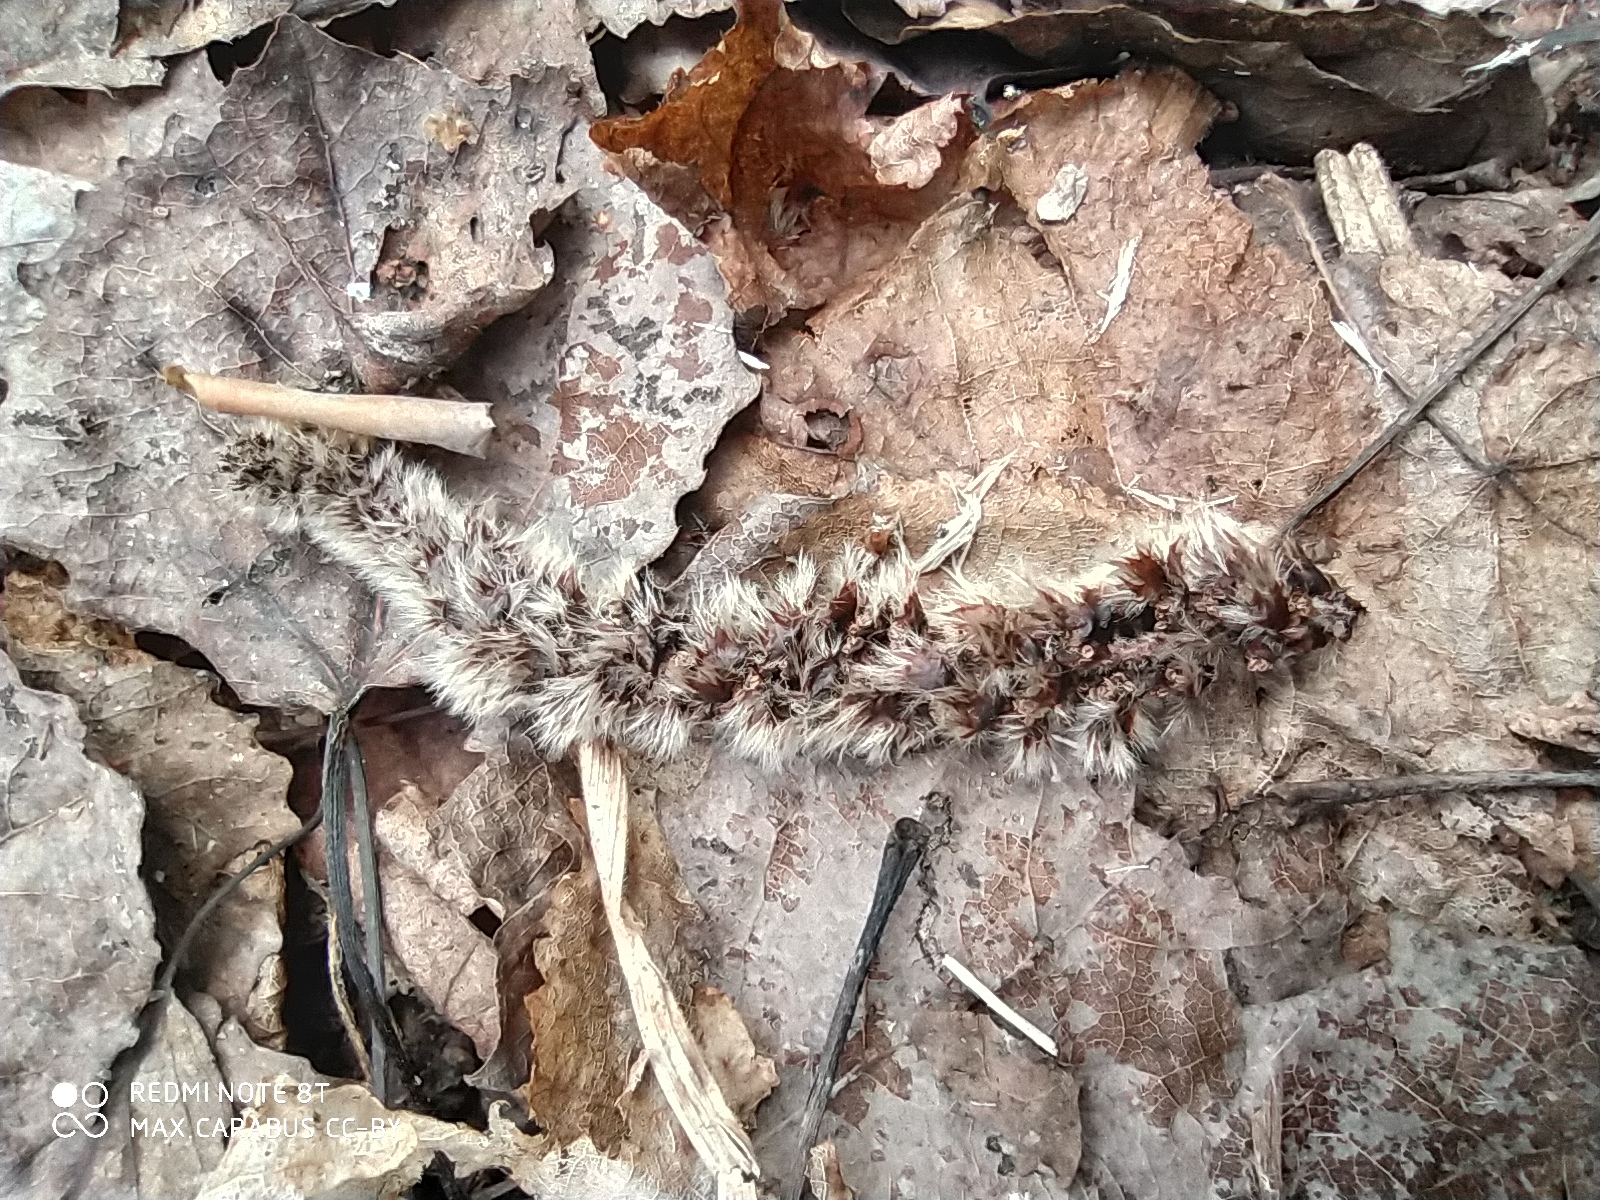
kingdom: Plantae
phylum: Tracheophyta
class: Magnoliopsida
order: Malpighiales
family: Salicaceae
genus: Populus
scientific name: Populus tremula
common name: European aspen
